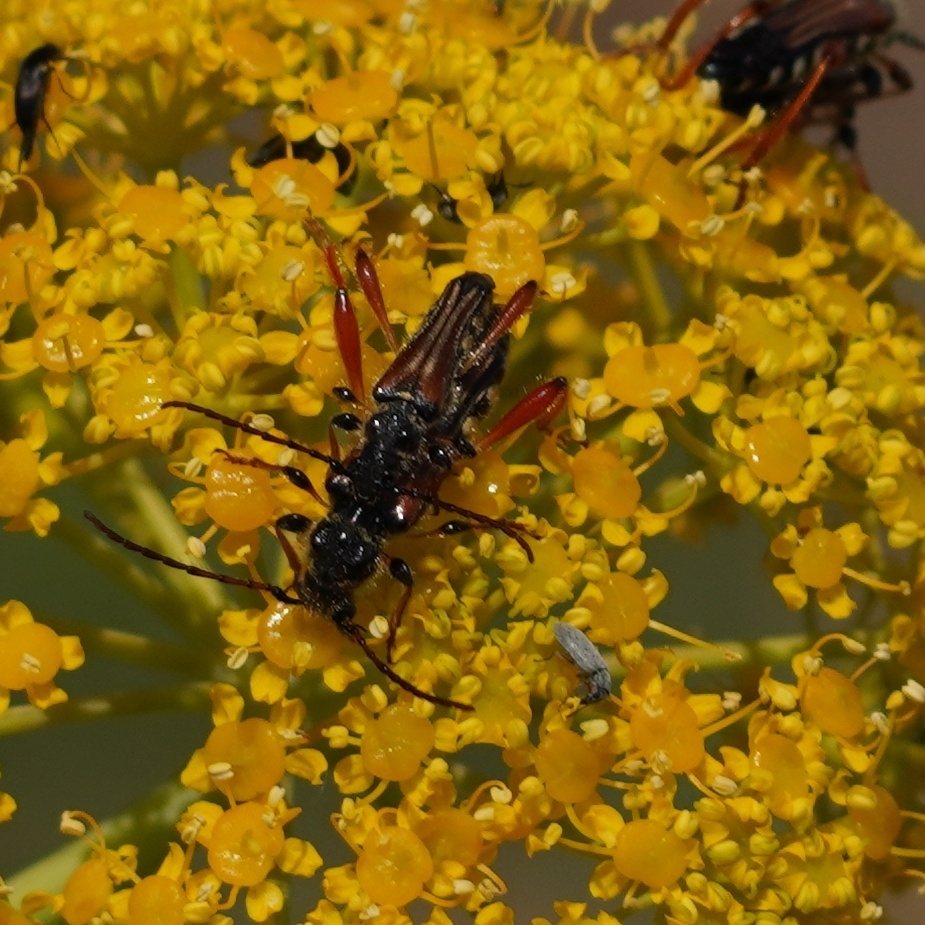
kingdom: Animalia
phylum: Arthropoda
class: Insecta
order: Coleoptera
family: Cerambycidae
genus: Stenopterus
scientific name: Stenopterus rufus
